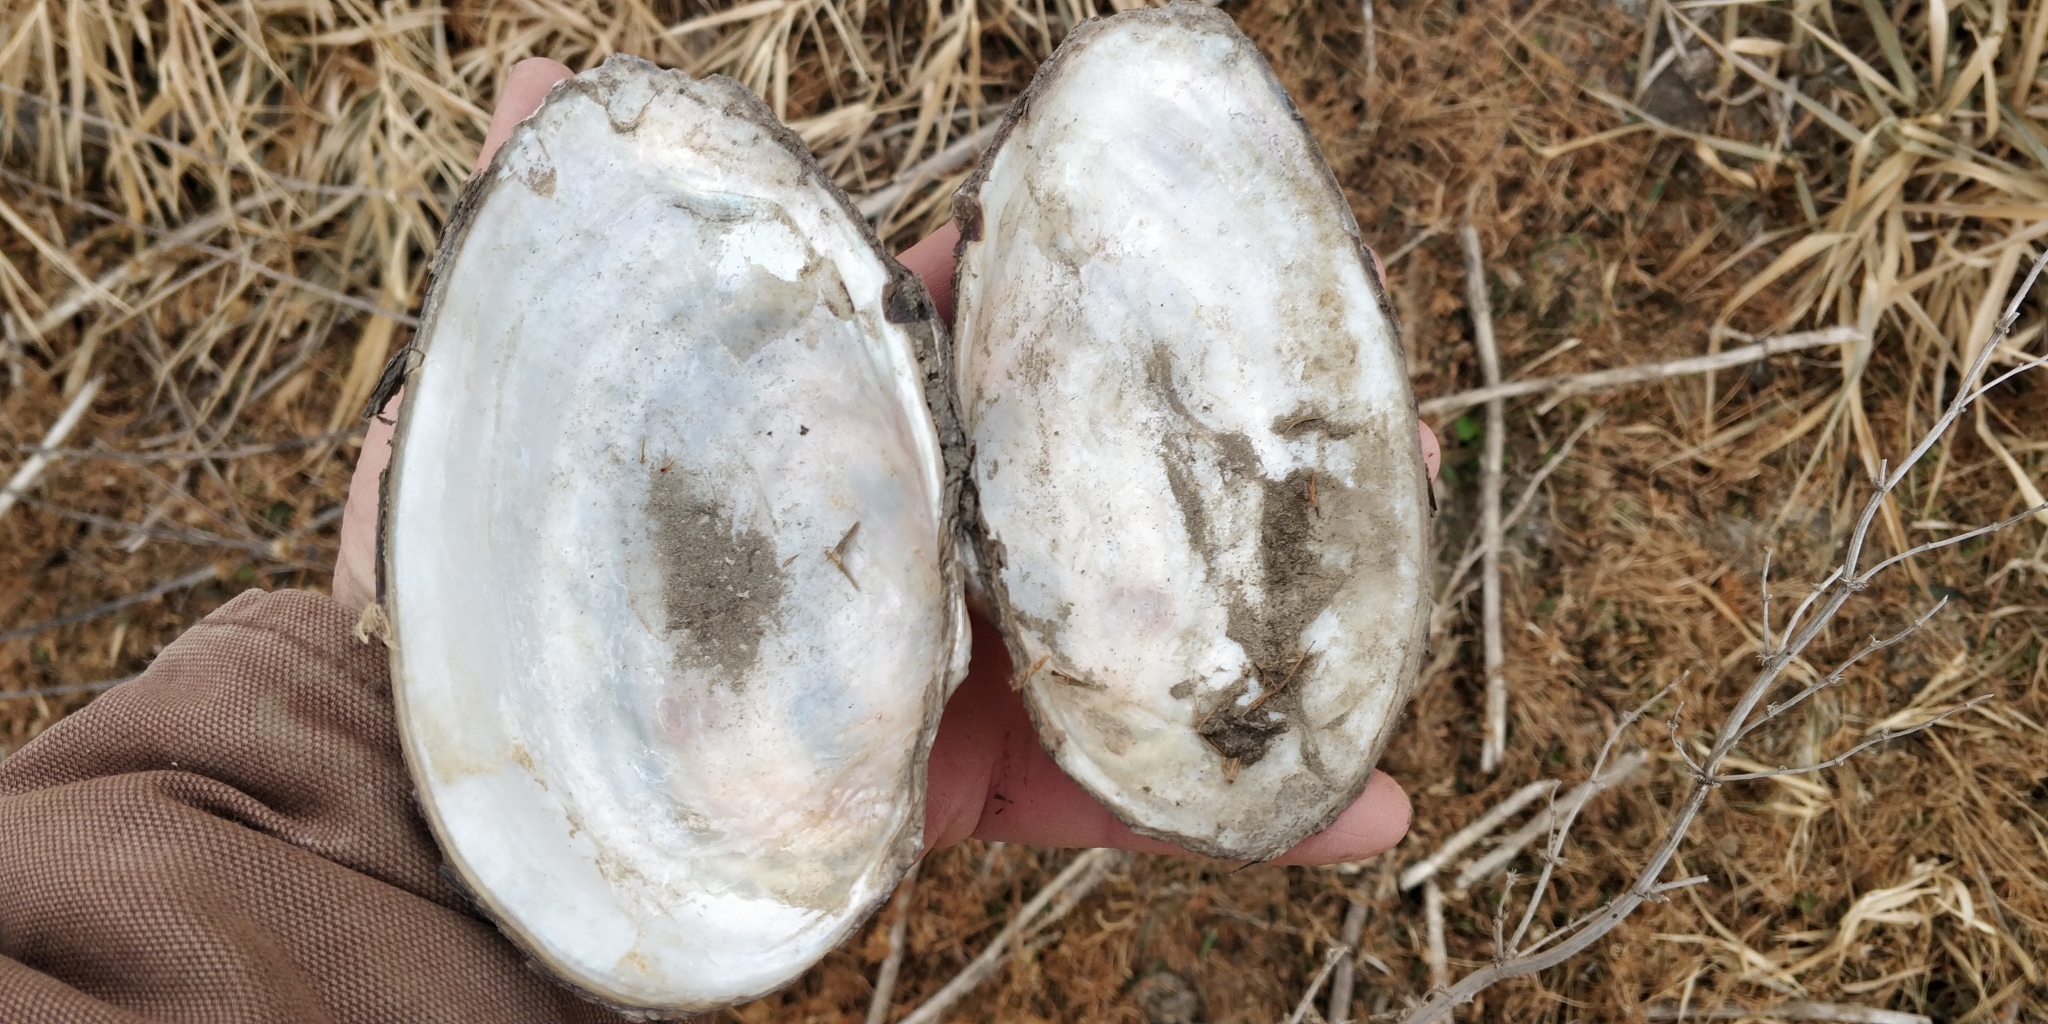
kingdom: Animalia
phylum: Mollusca
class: Bivalvia
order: Unionida
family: Unionidae
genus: Pyganodon
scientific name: Pyganodon grandis
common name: Giant floater
